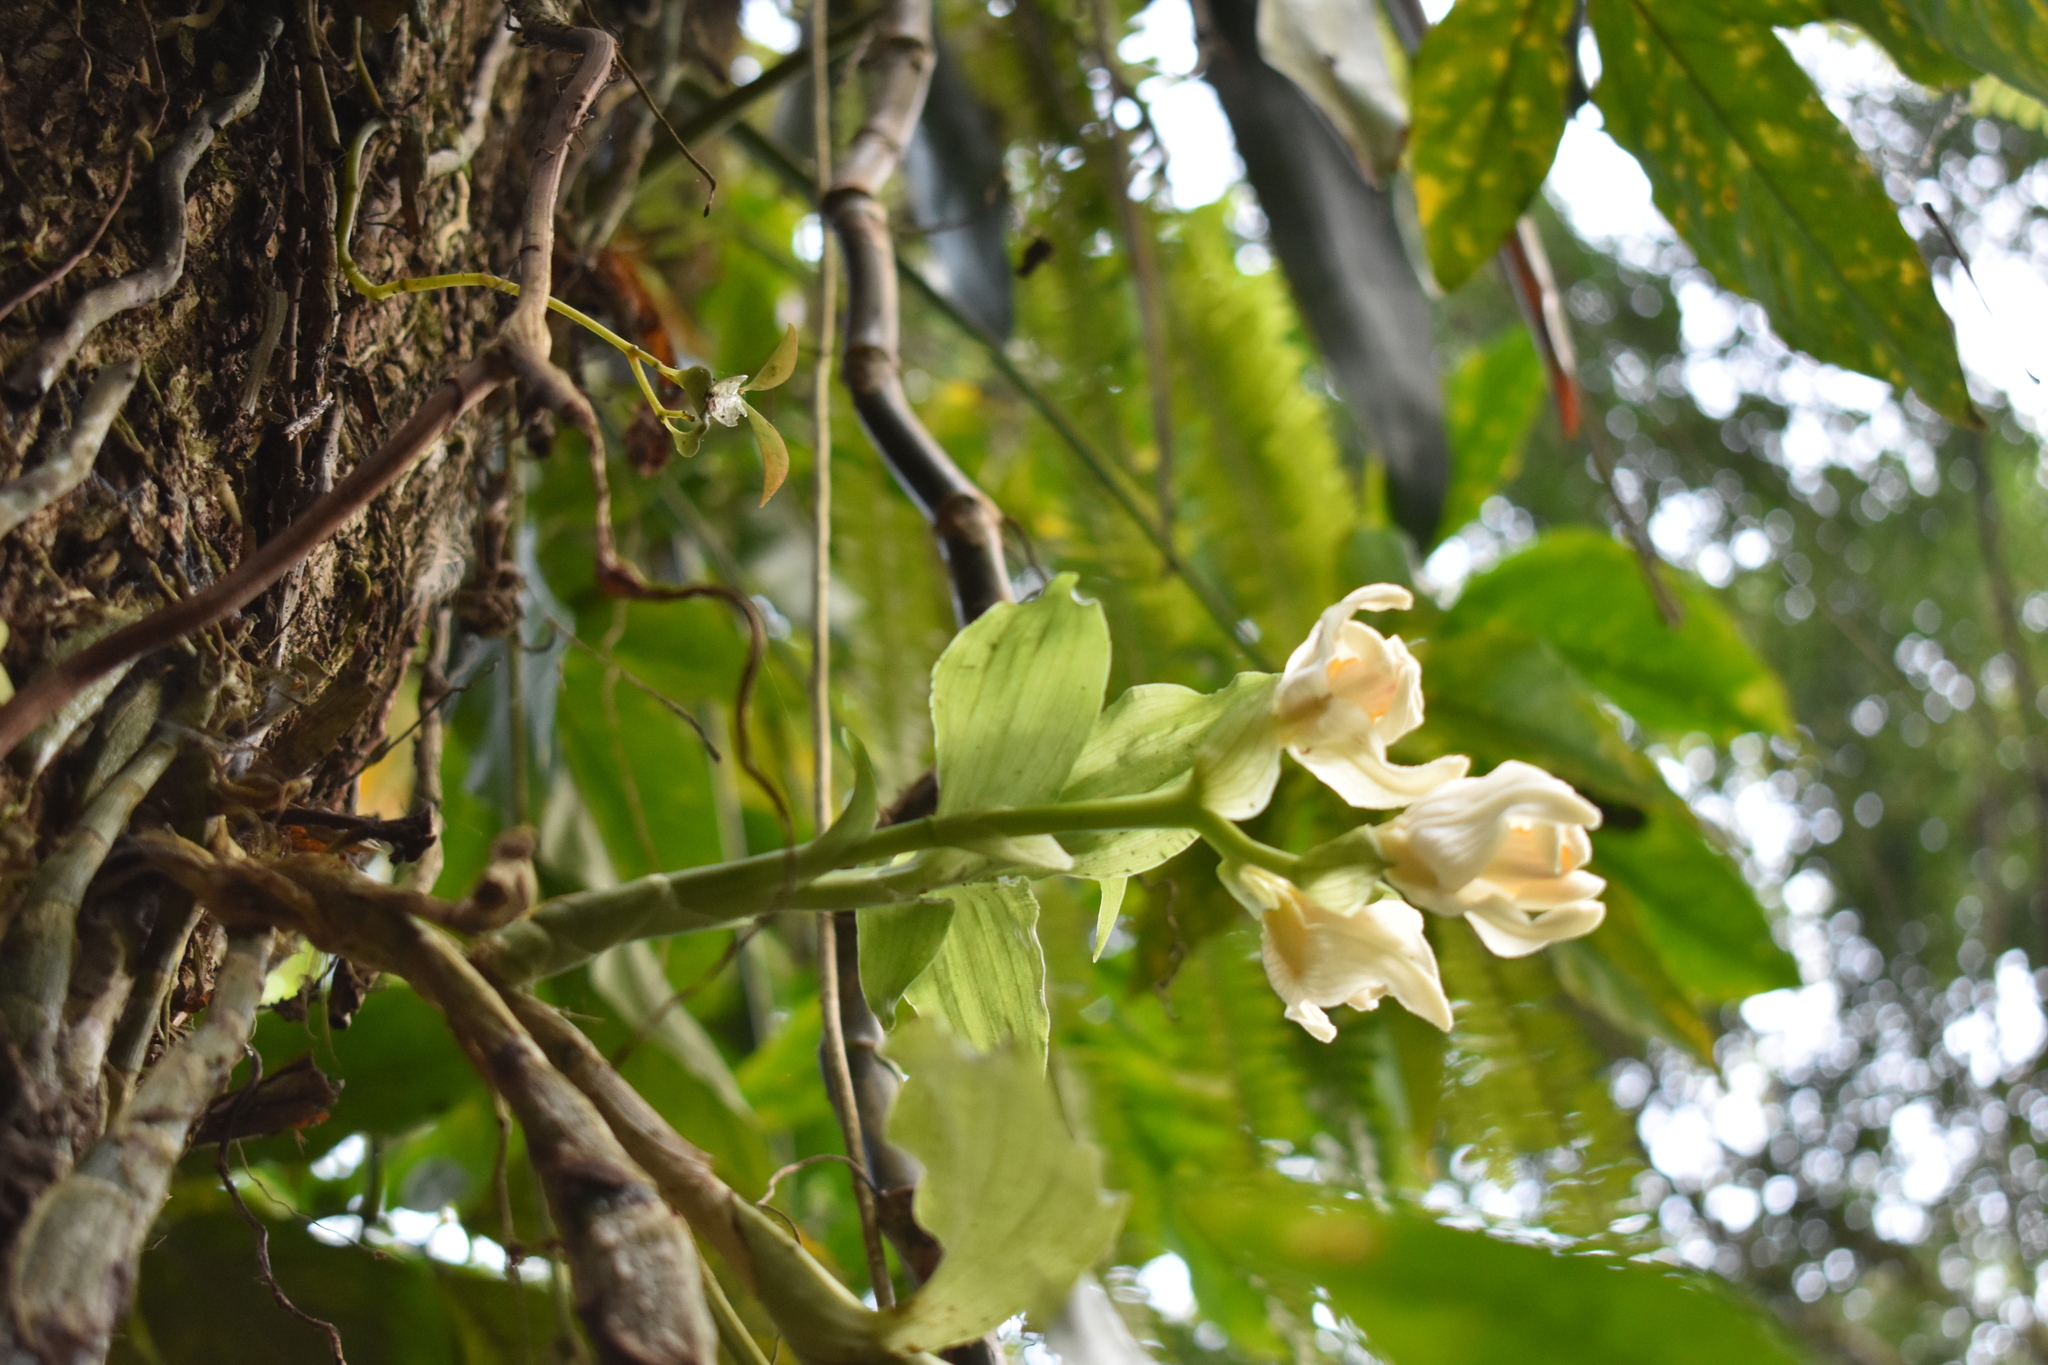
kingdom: Plantae
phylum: Tracheophyta
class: Liliopsida
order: Asparagales
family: Orchidaceae
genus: Chysis
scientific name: Chysis bractescens
